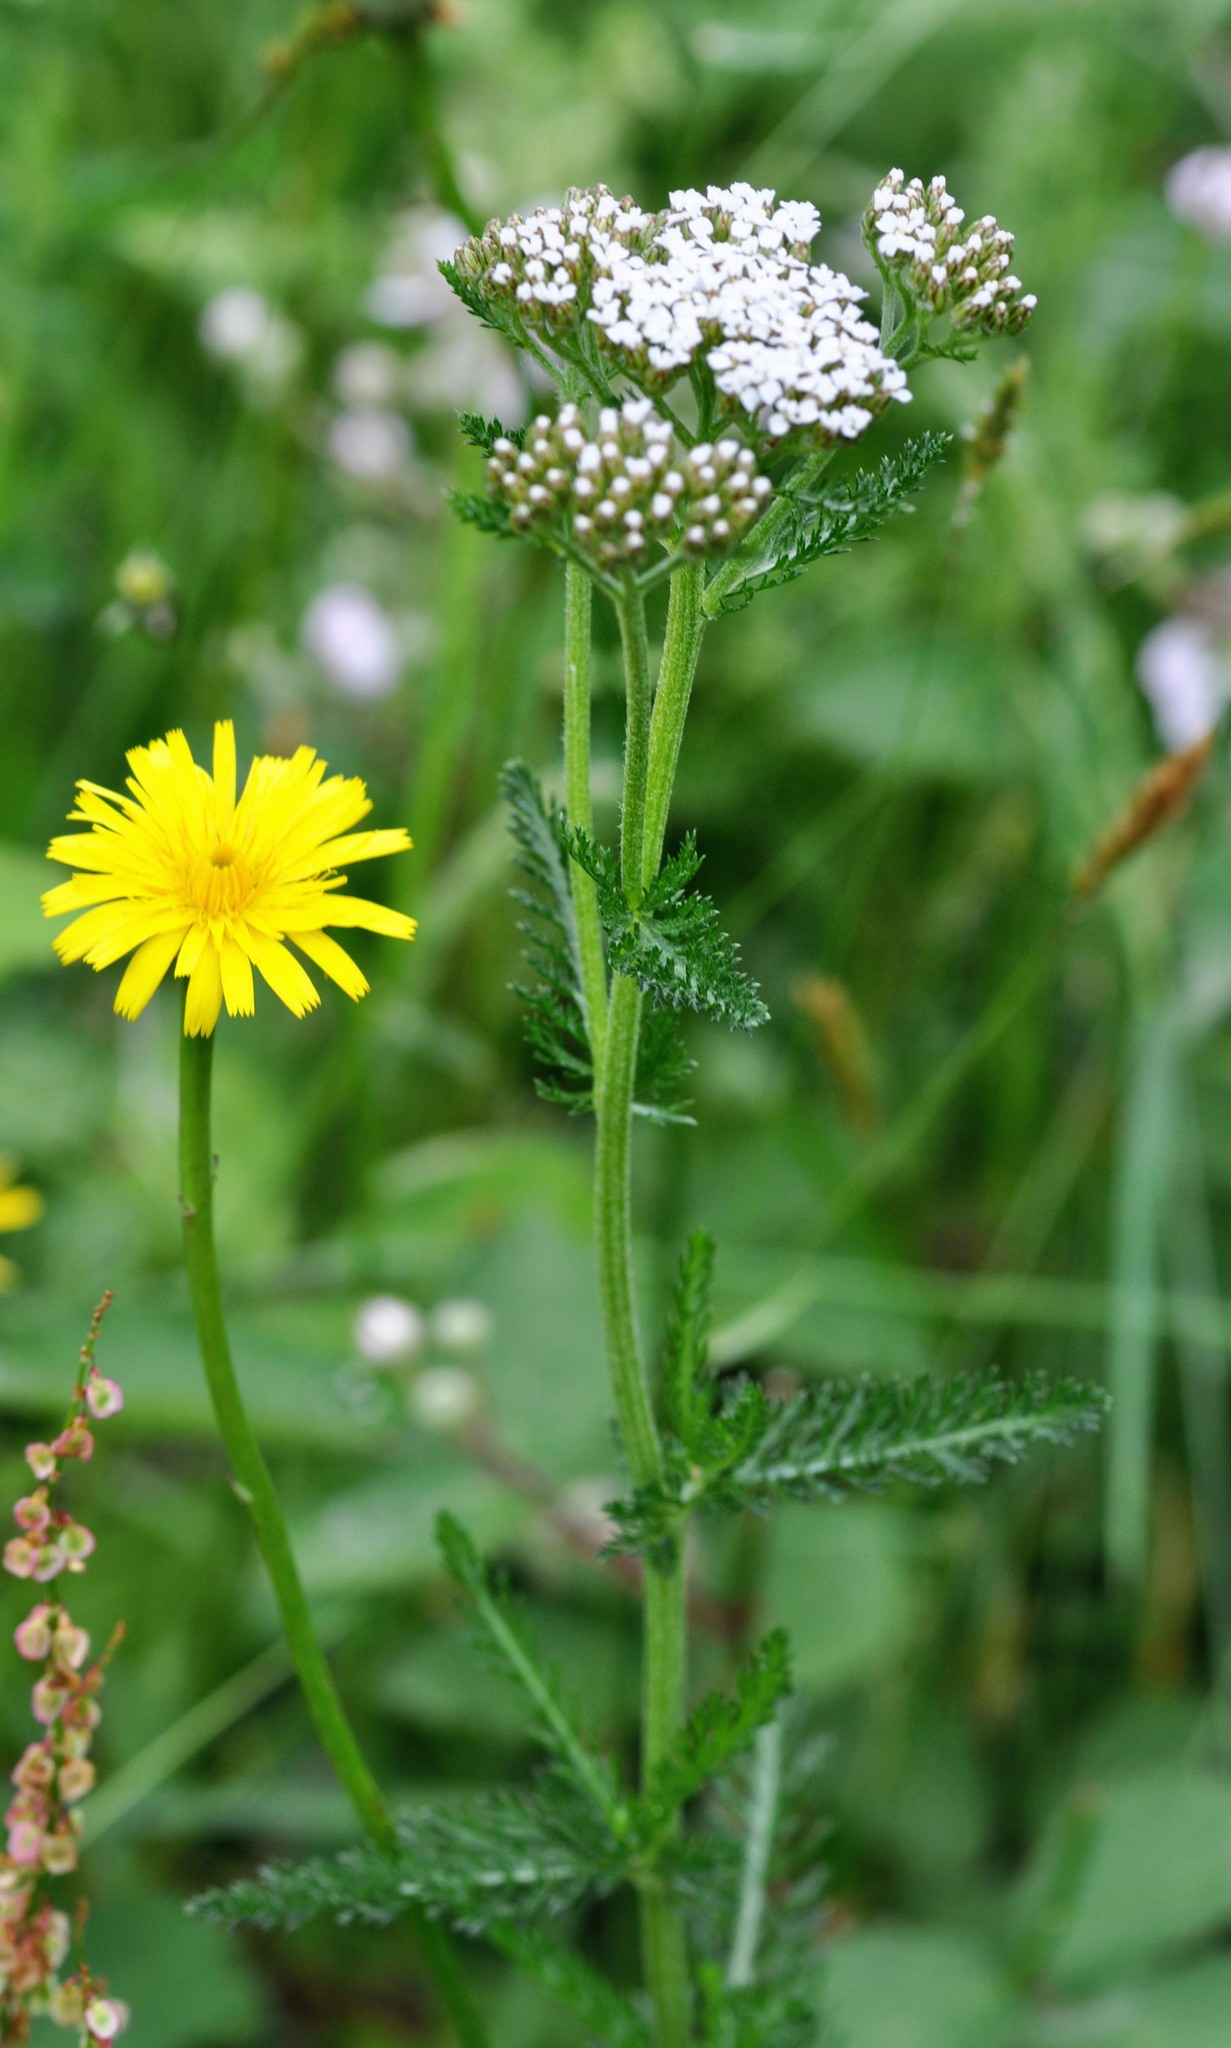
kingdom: Plantae
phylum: Tracheophyta
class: Magnoliopsida
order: Asterales
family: Asteraceae
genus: Achillea
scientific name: Achillea millefolium
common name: Yarrow
